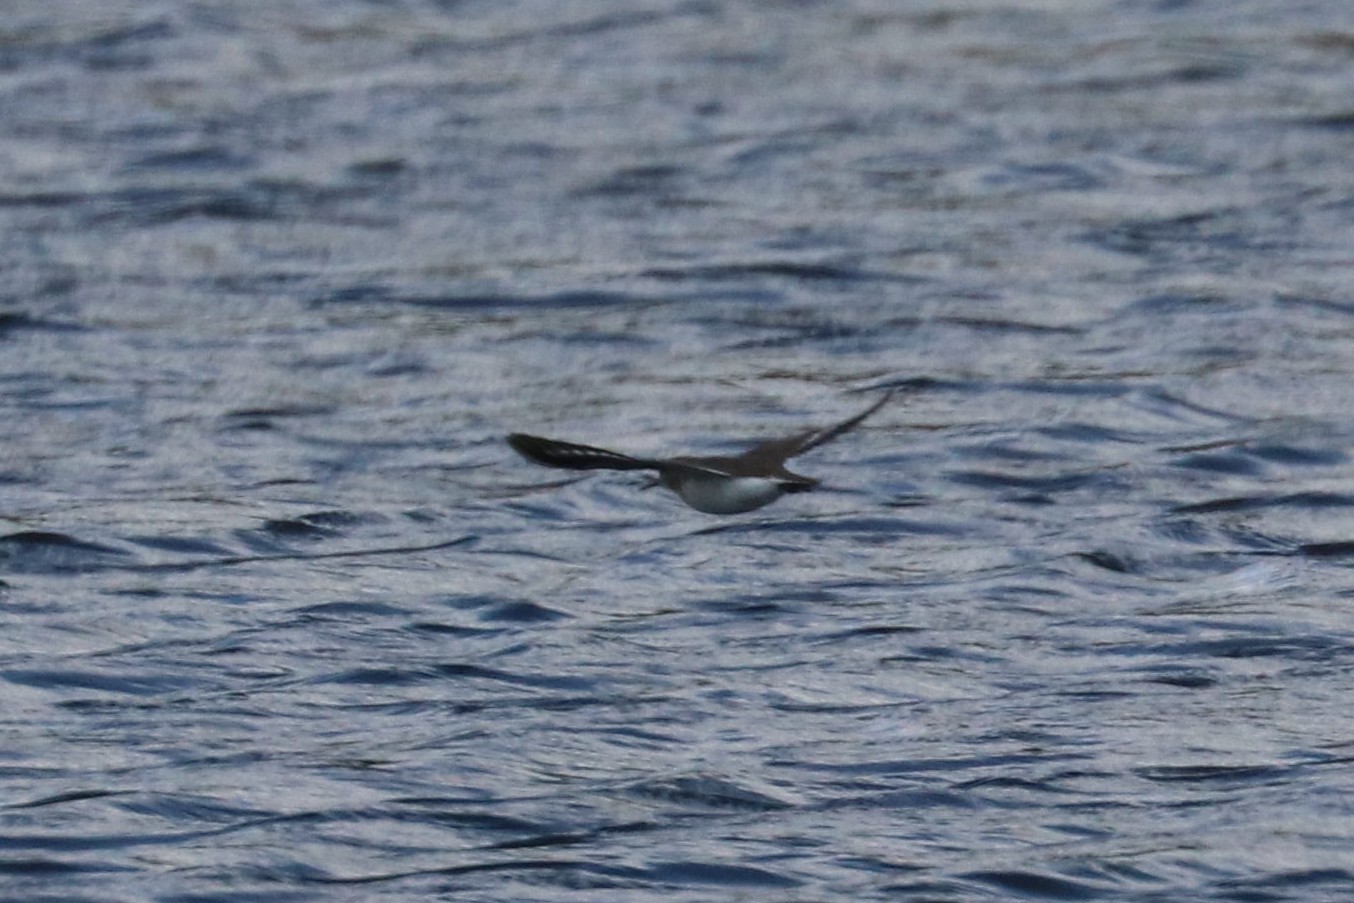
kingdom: Animalia
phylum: Chordata
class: Aves
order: Charadriiformes
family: Scolopacidae
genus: Actitis
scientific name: Actitis hypoleucos
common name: Common sandpiper
